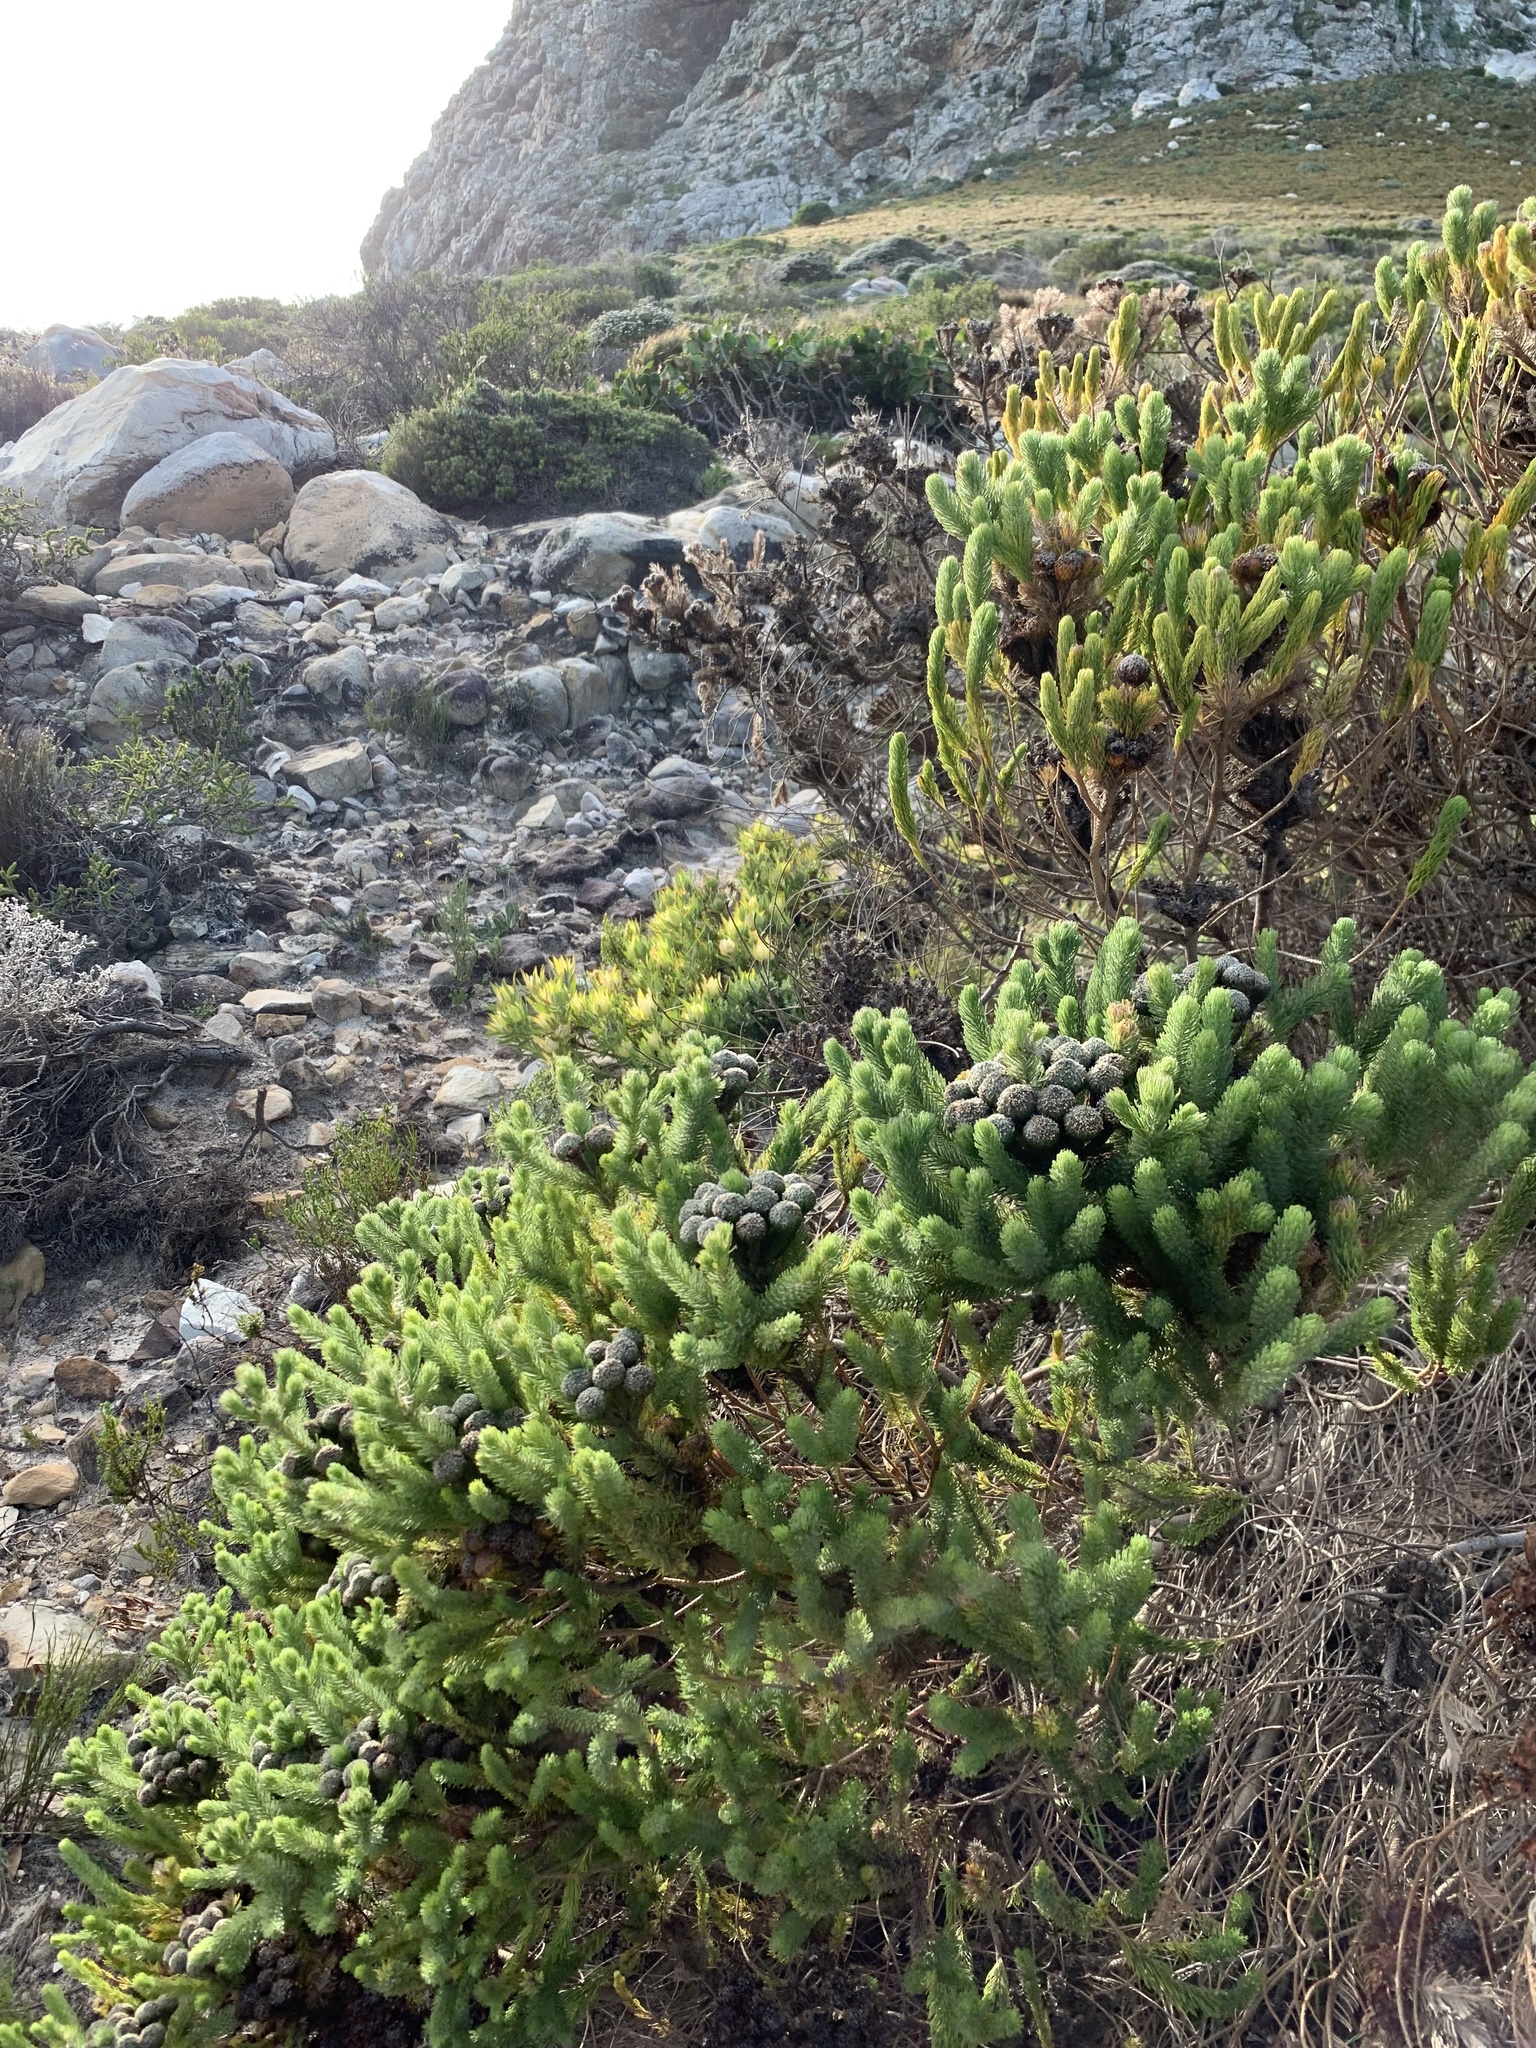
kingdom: Plantae
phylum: Tracheophyta
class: Magnoliopsida
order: Bruniales
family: Bruniaceae
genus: Berzelia
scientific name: Berzelia albiflora
